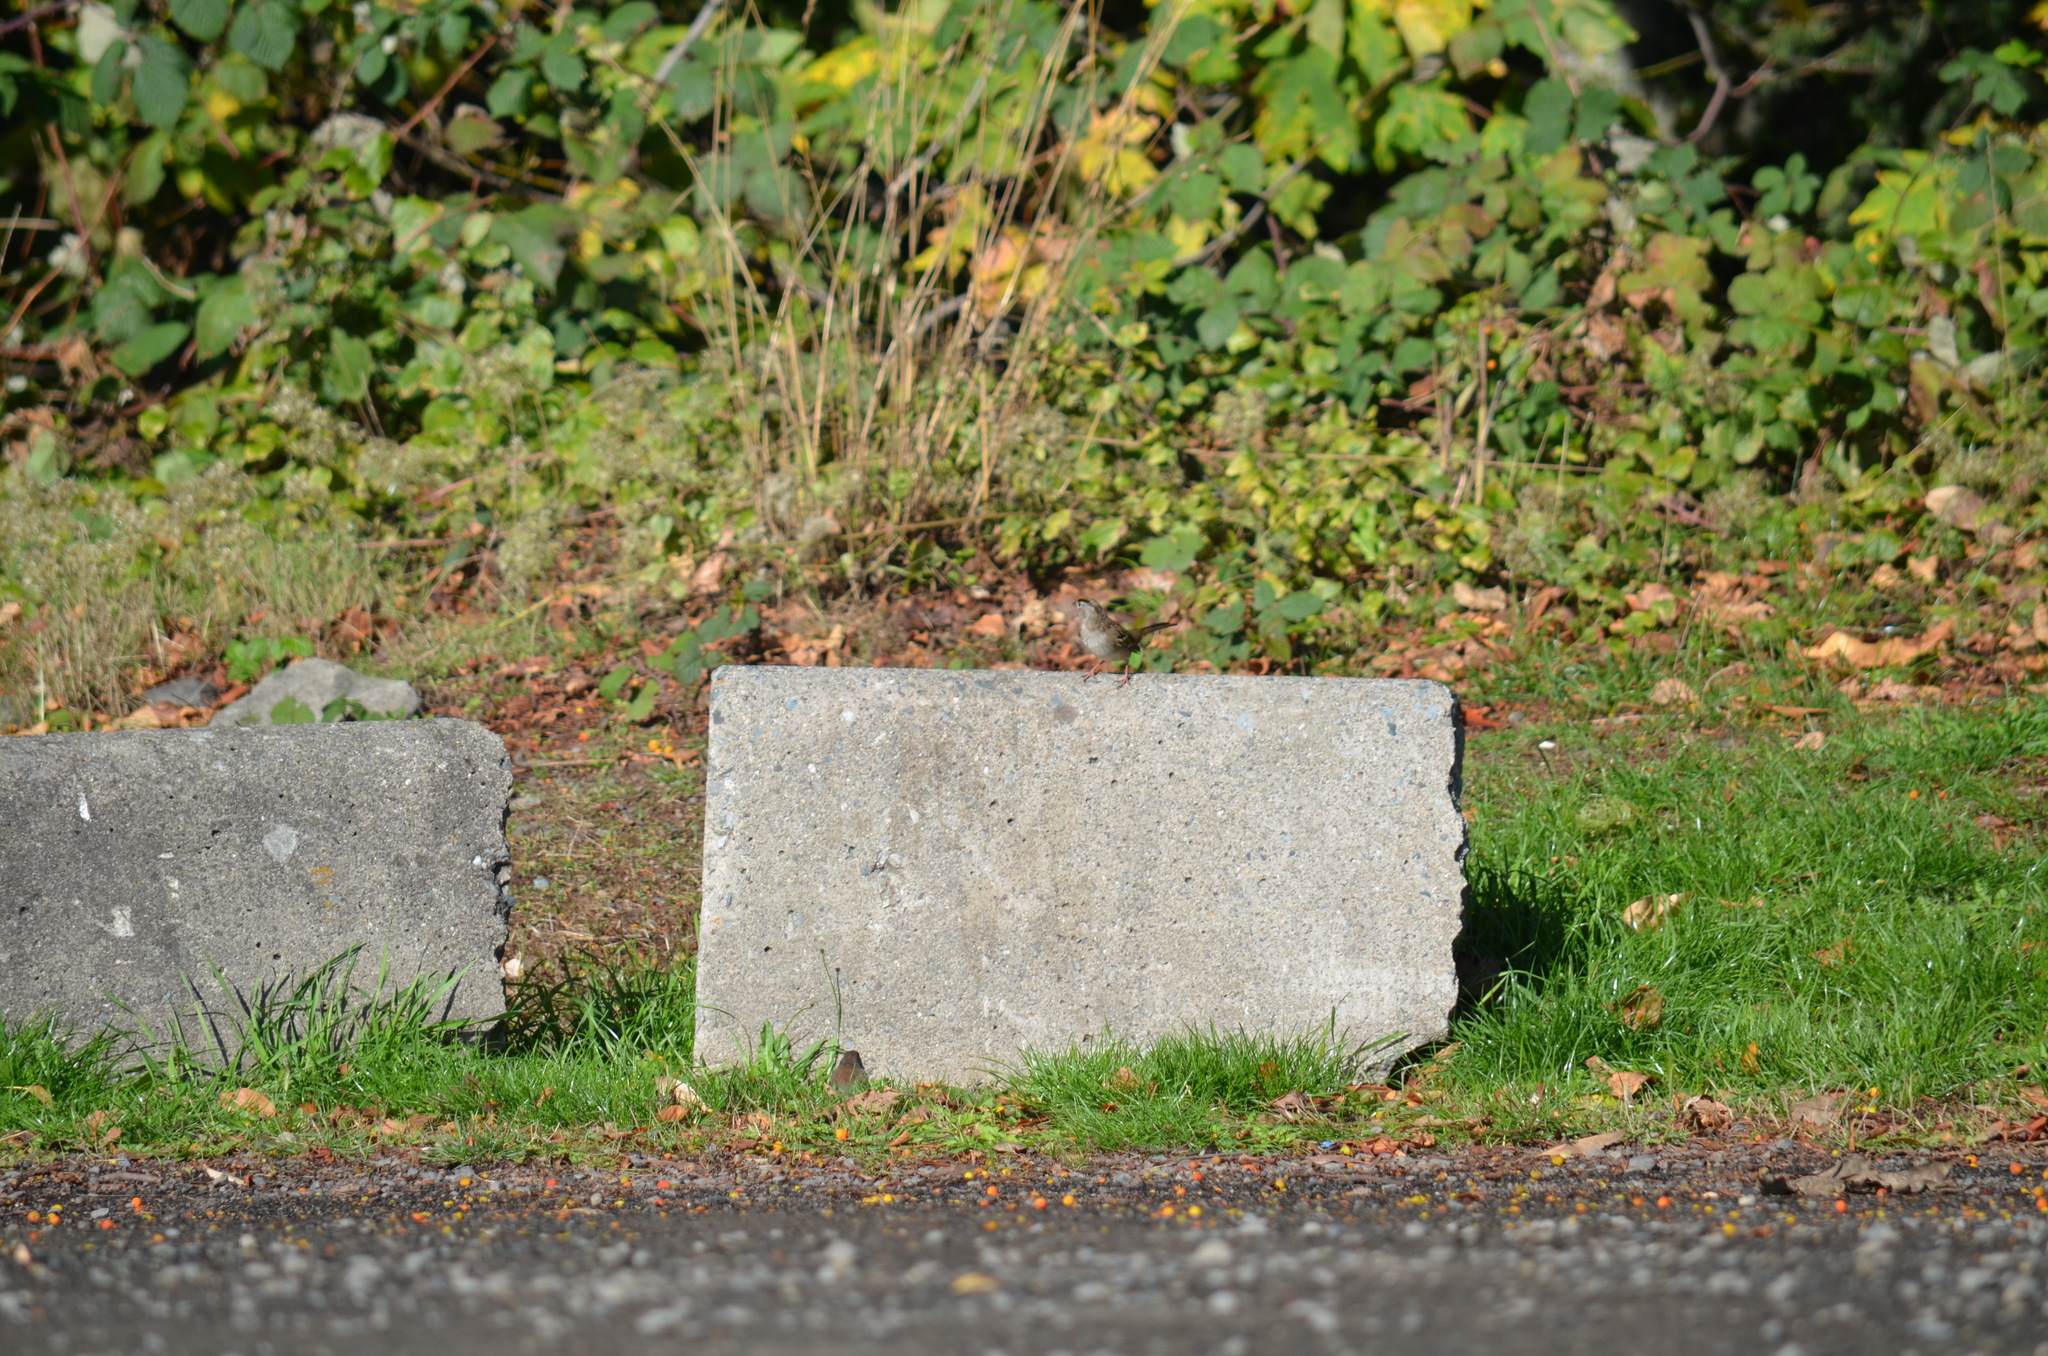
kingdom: Animalia
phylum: Chordata
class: Aves
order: Passeriformes
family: Passerellidae
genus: Zonotrichia
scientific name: Zonotrichia atricapilla
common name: Golden-crowned sparrow
